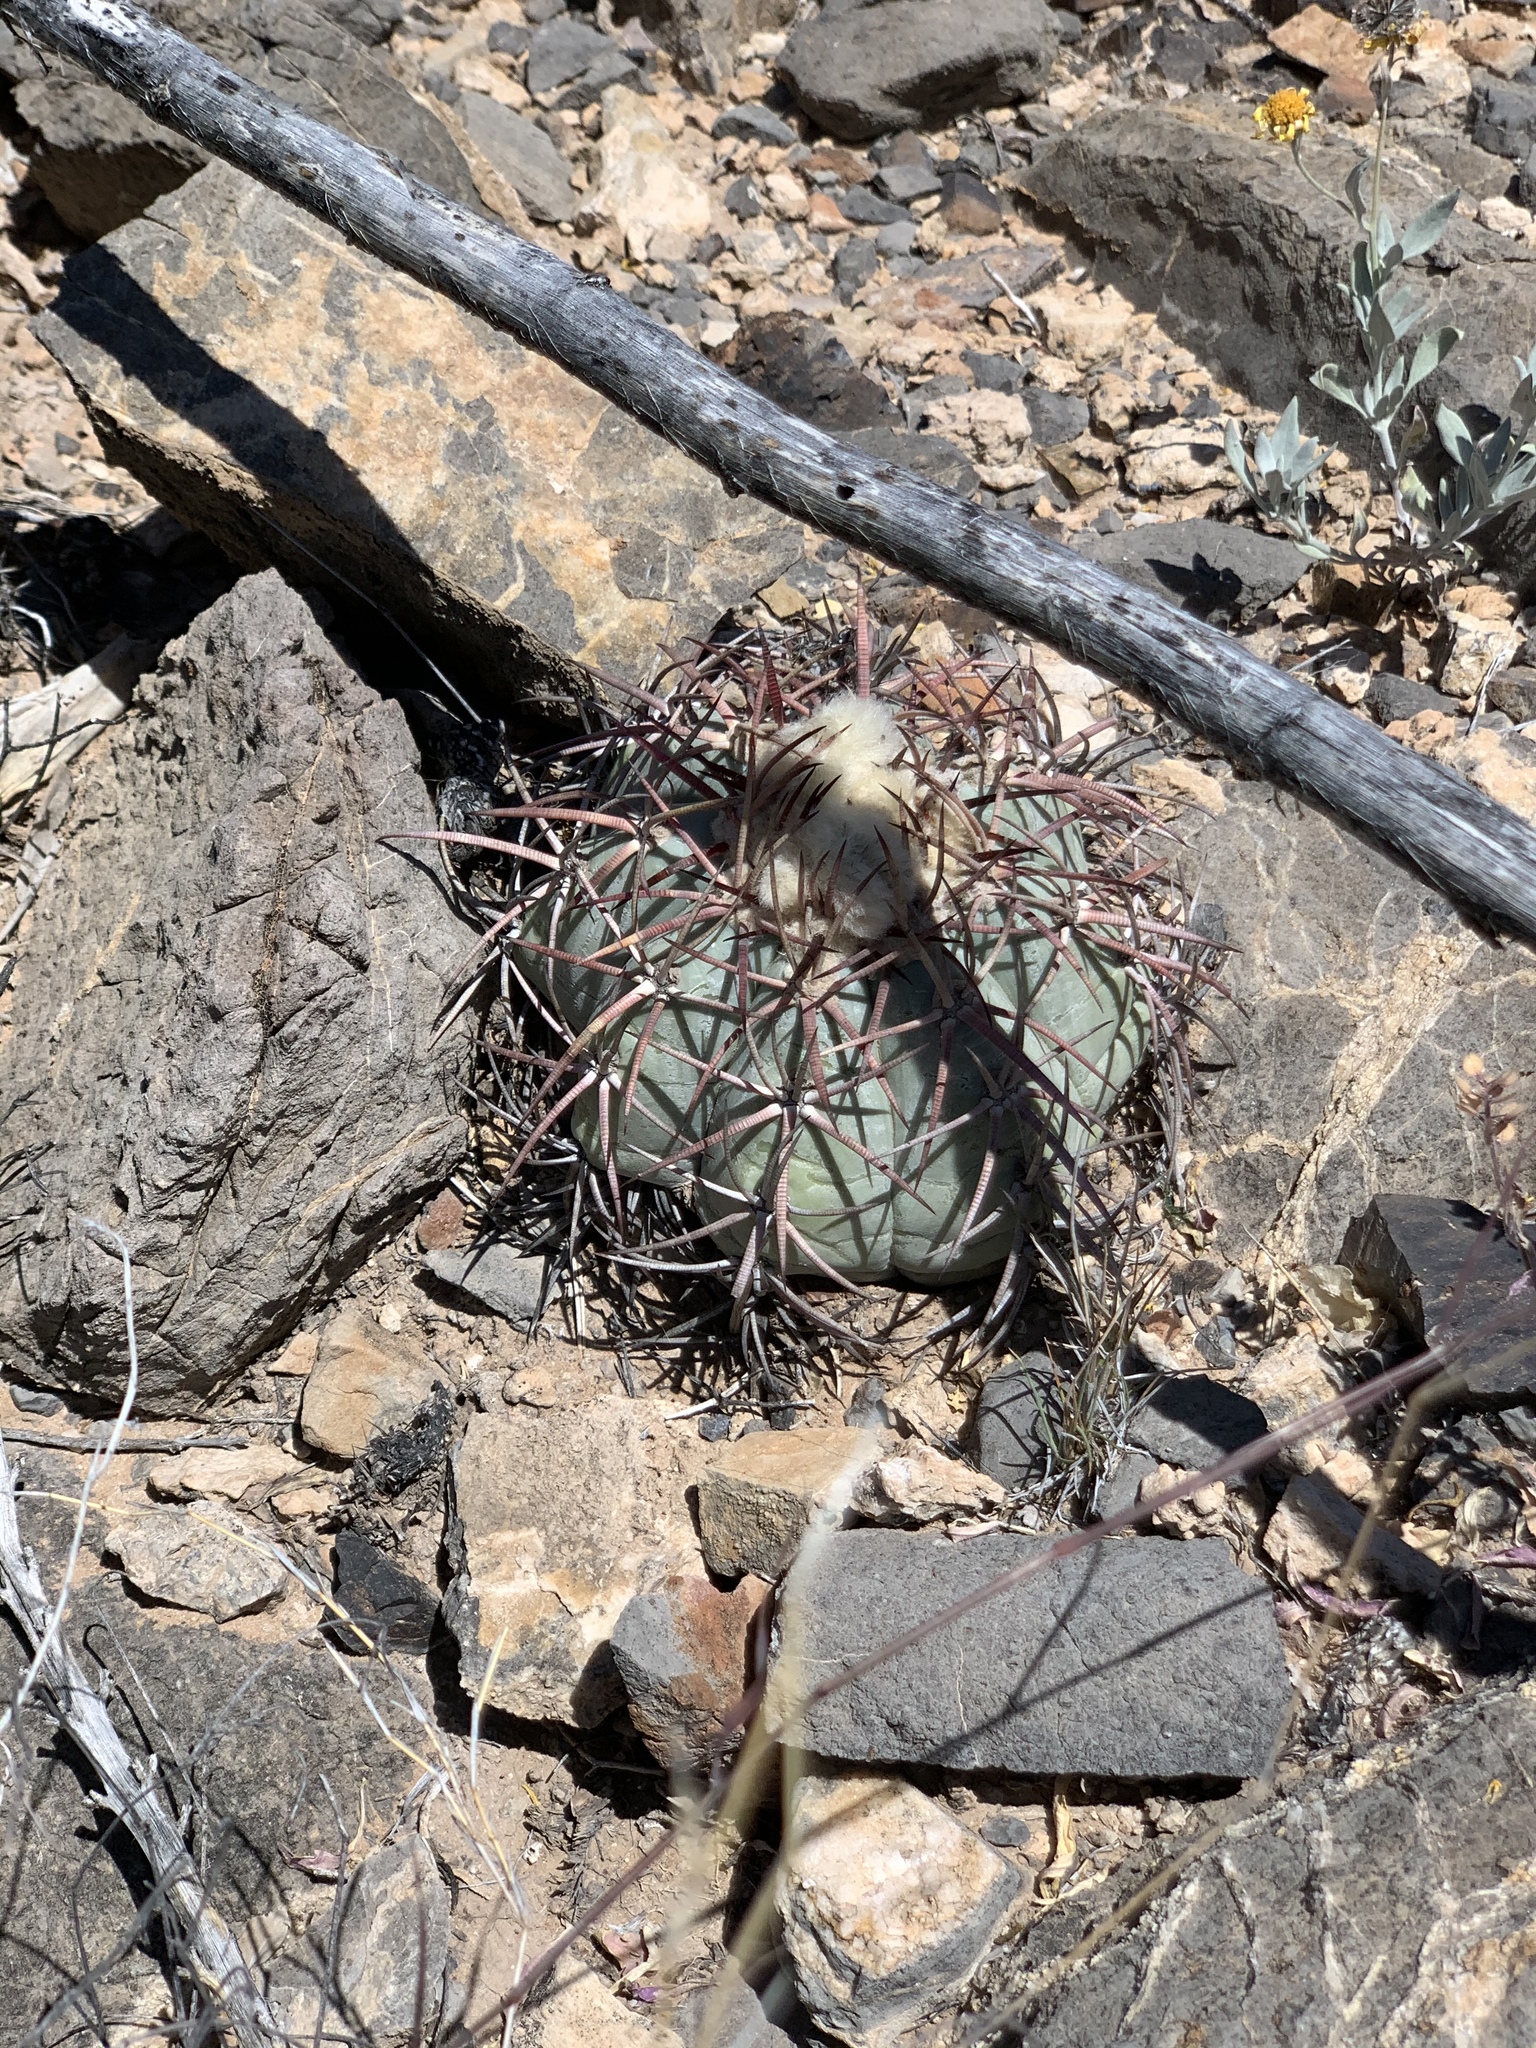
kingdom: Plantae
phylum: Tracheophyta
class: Magnoliopsida
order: Caryophyllales
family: Cactaceae
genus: Echinocactus
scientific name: Echinocactus horizonthalonius
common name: Devilshead
